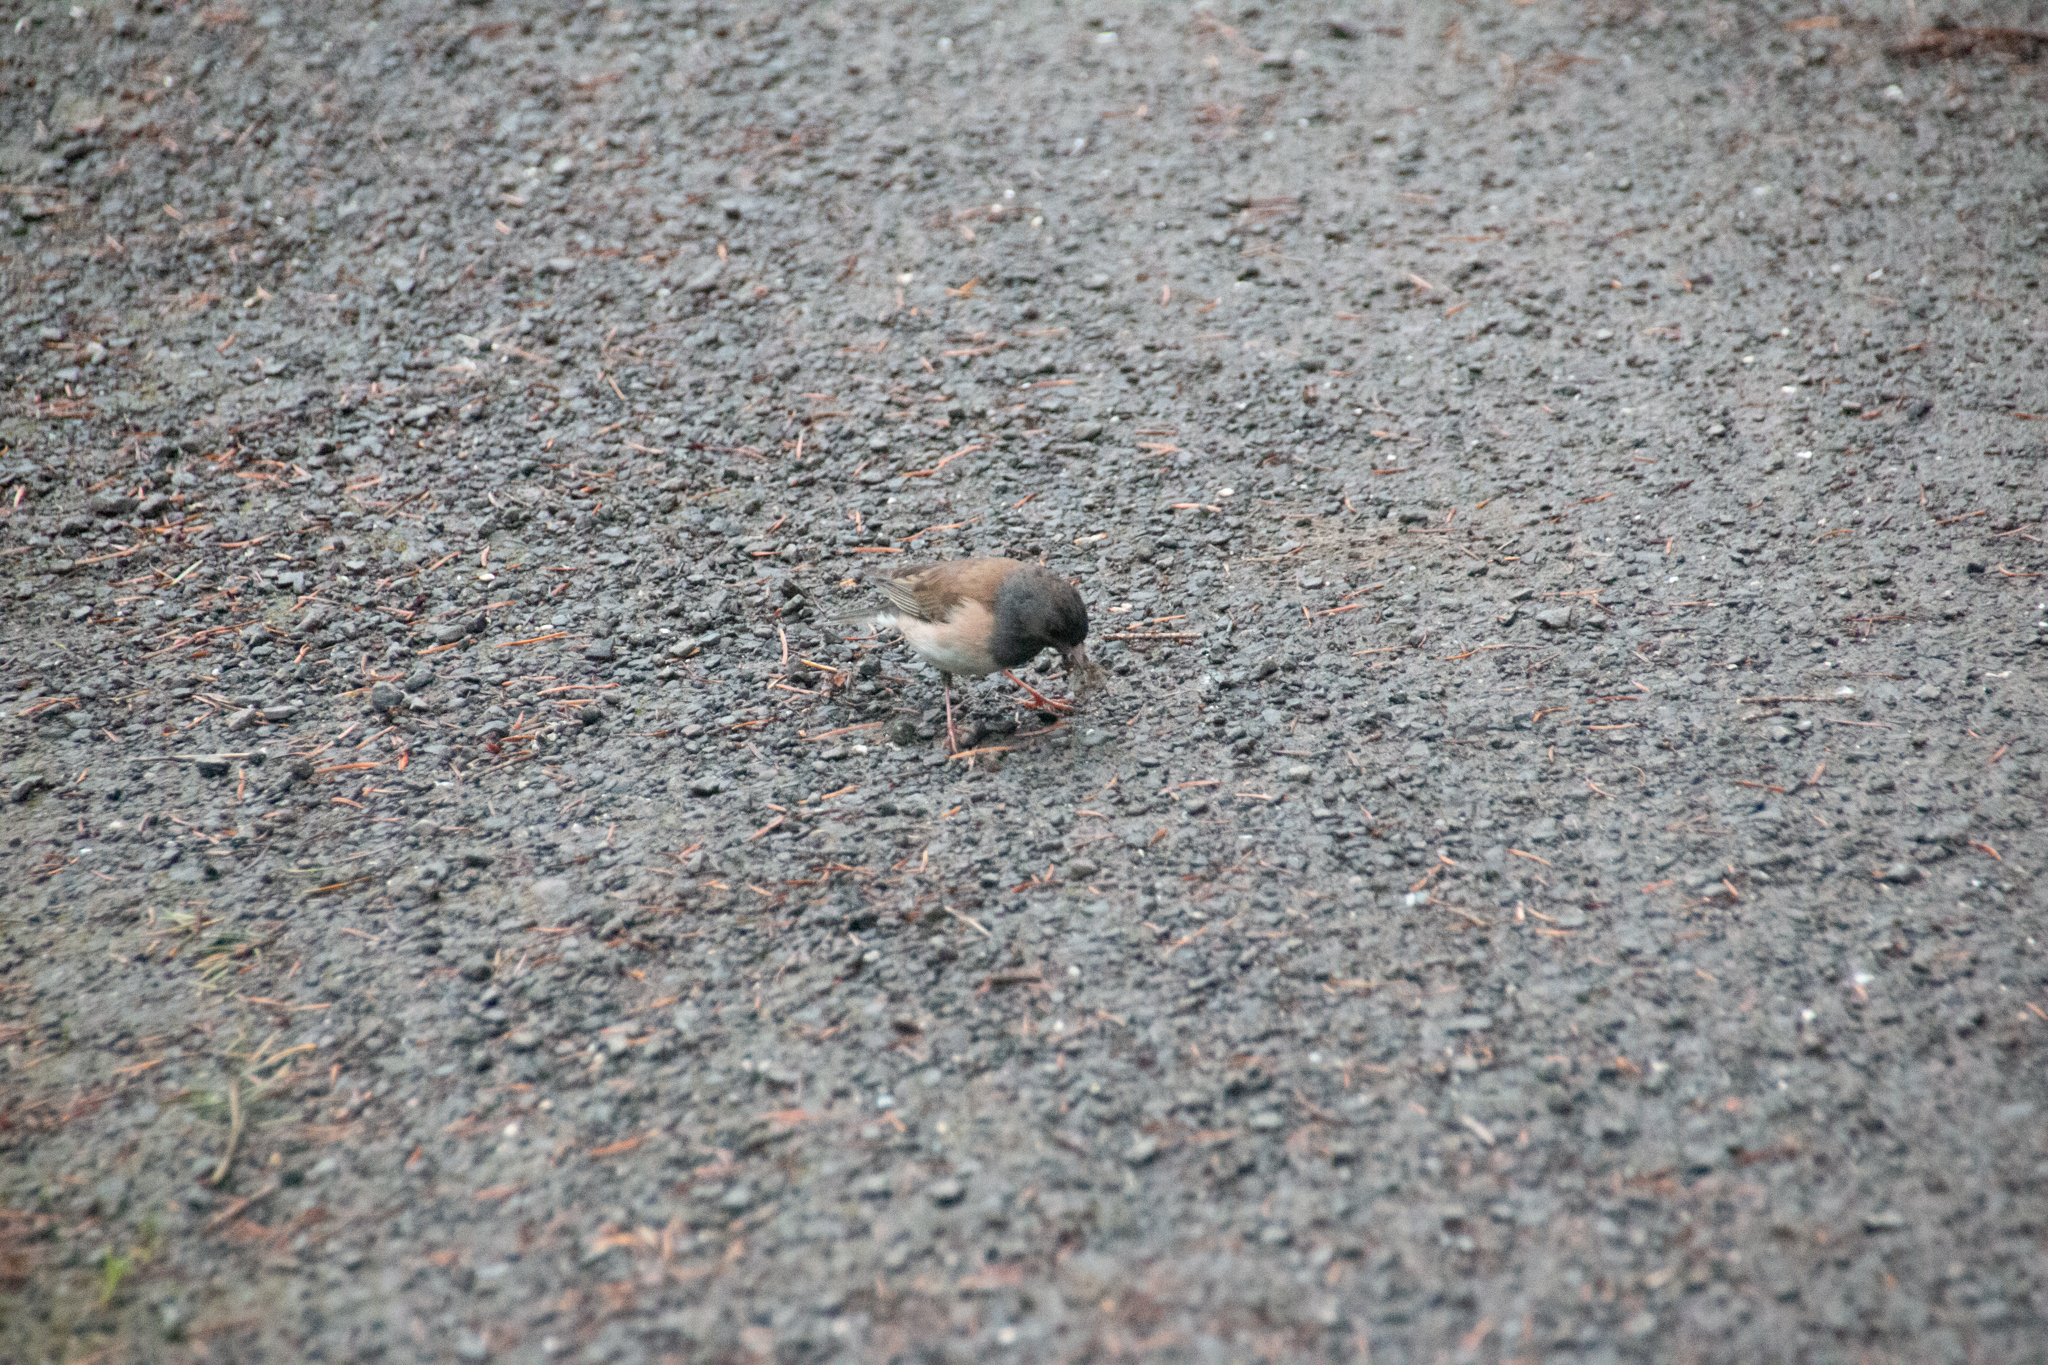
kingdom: Animalia
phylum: Chordata
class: Aves
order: Passeriformes
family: Passerellidae
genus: Junco
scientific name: Junco hyemalis
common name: Dark-eyed junco
